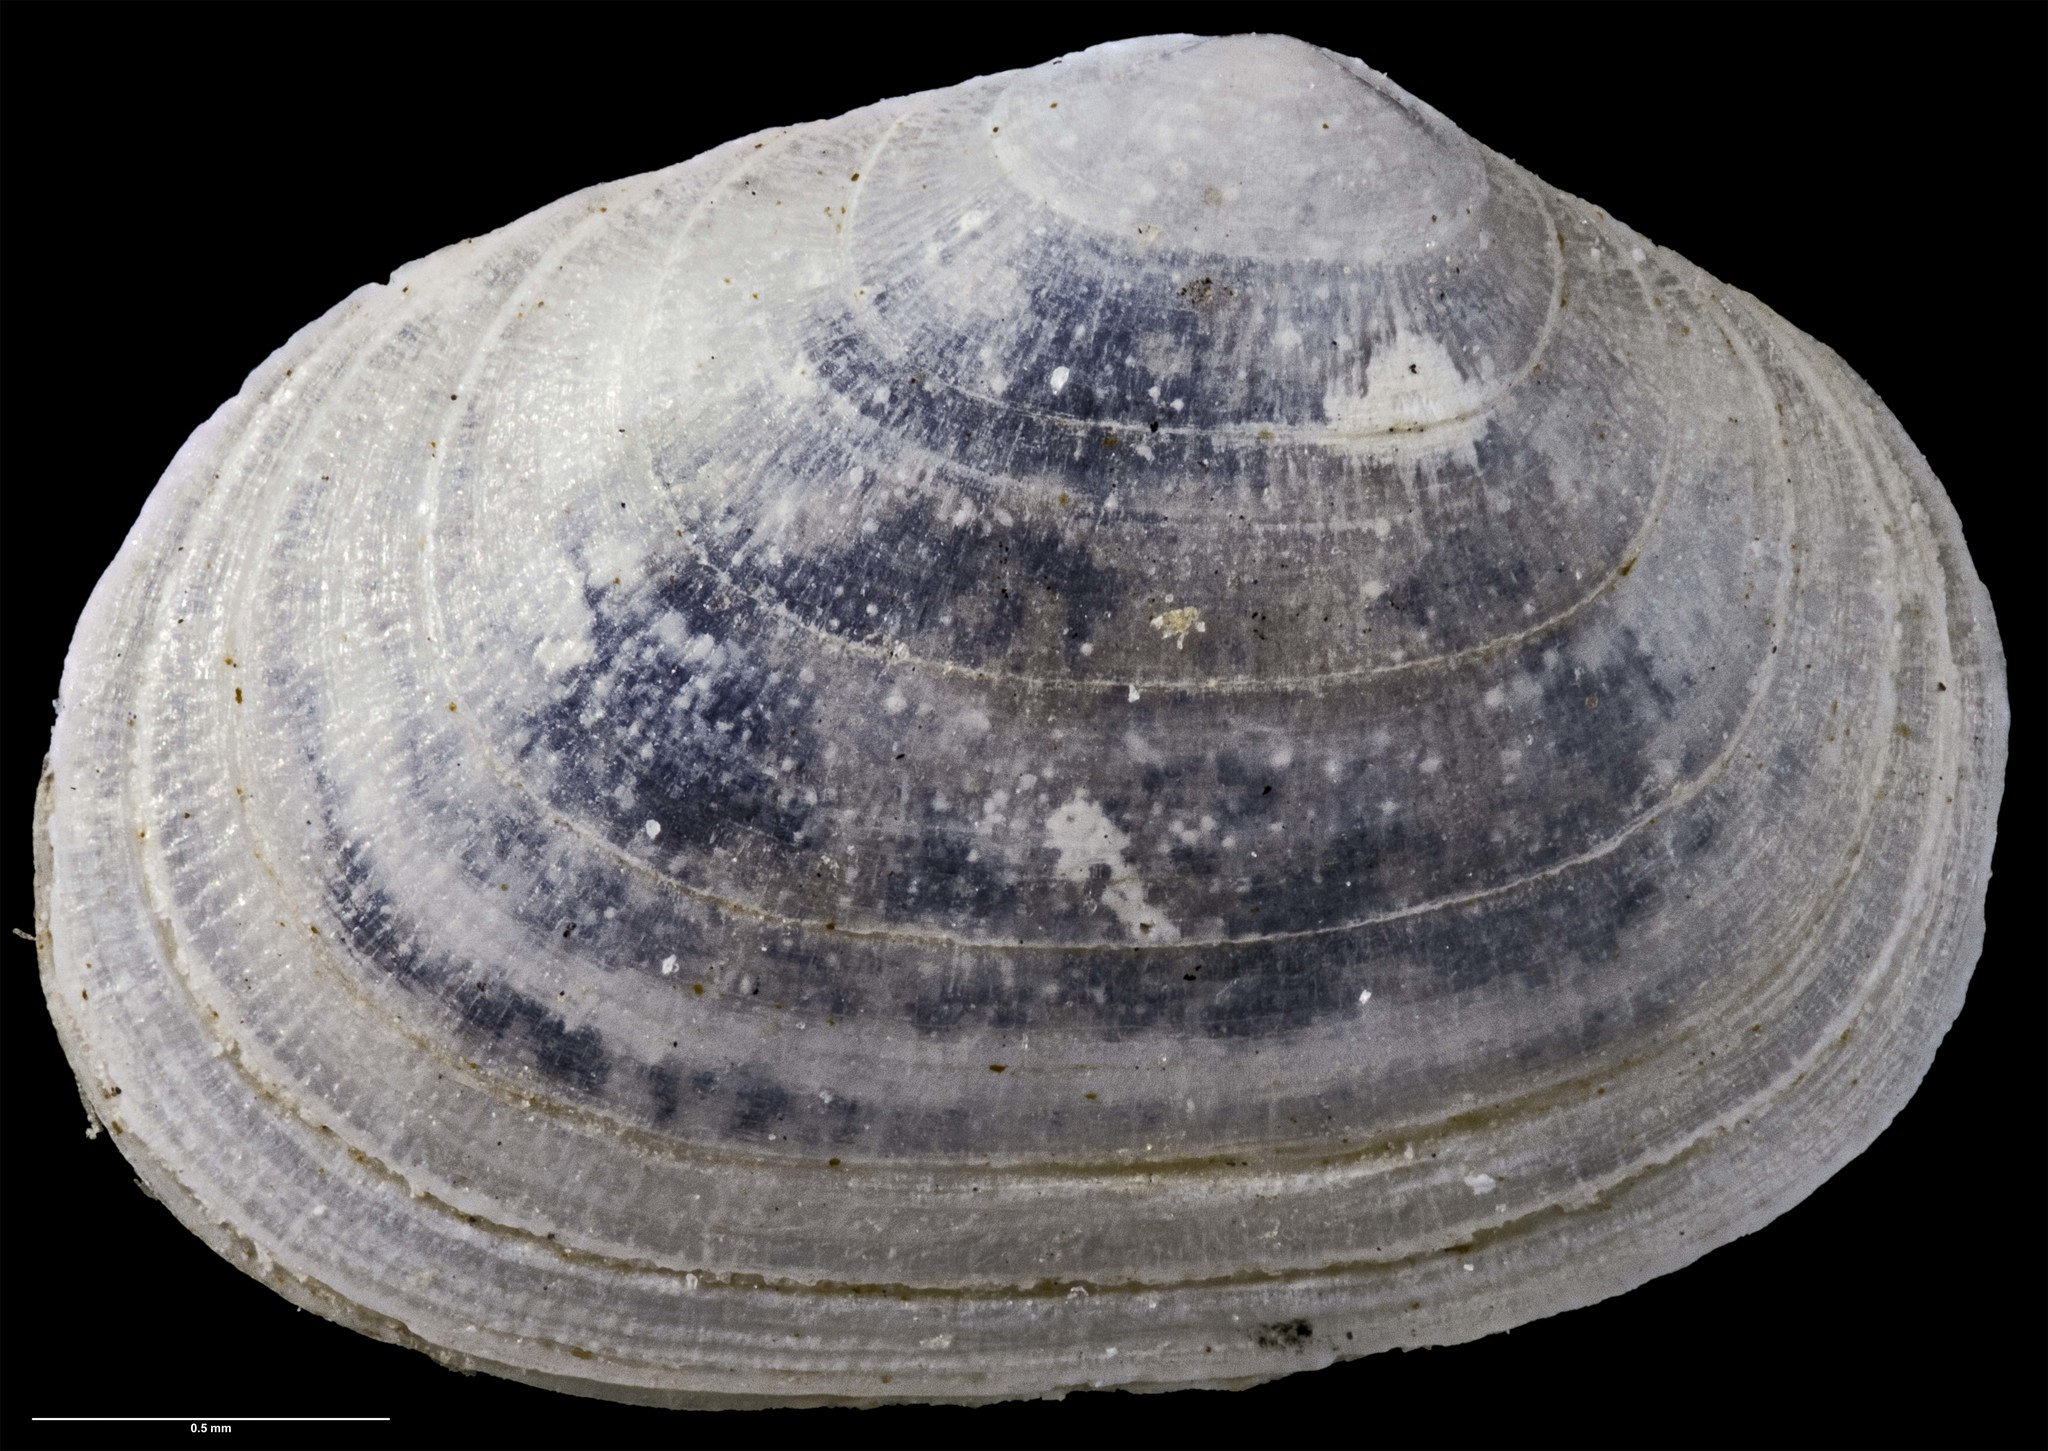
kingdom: Animalia
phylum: Mollusca
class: Bivalvia
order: Galeommatida
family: Lasaeidae
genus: Borniola
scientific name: Borniola decapitata
